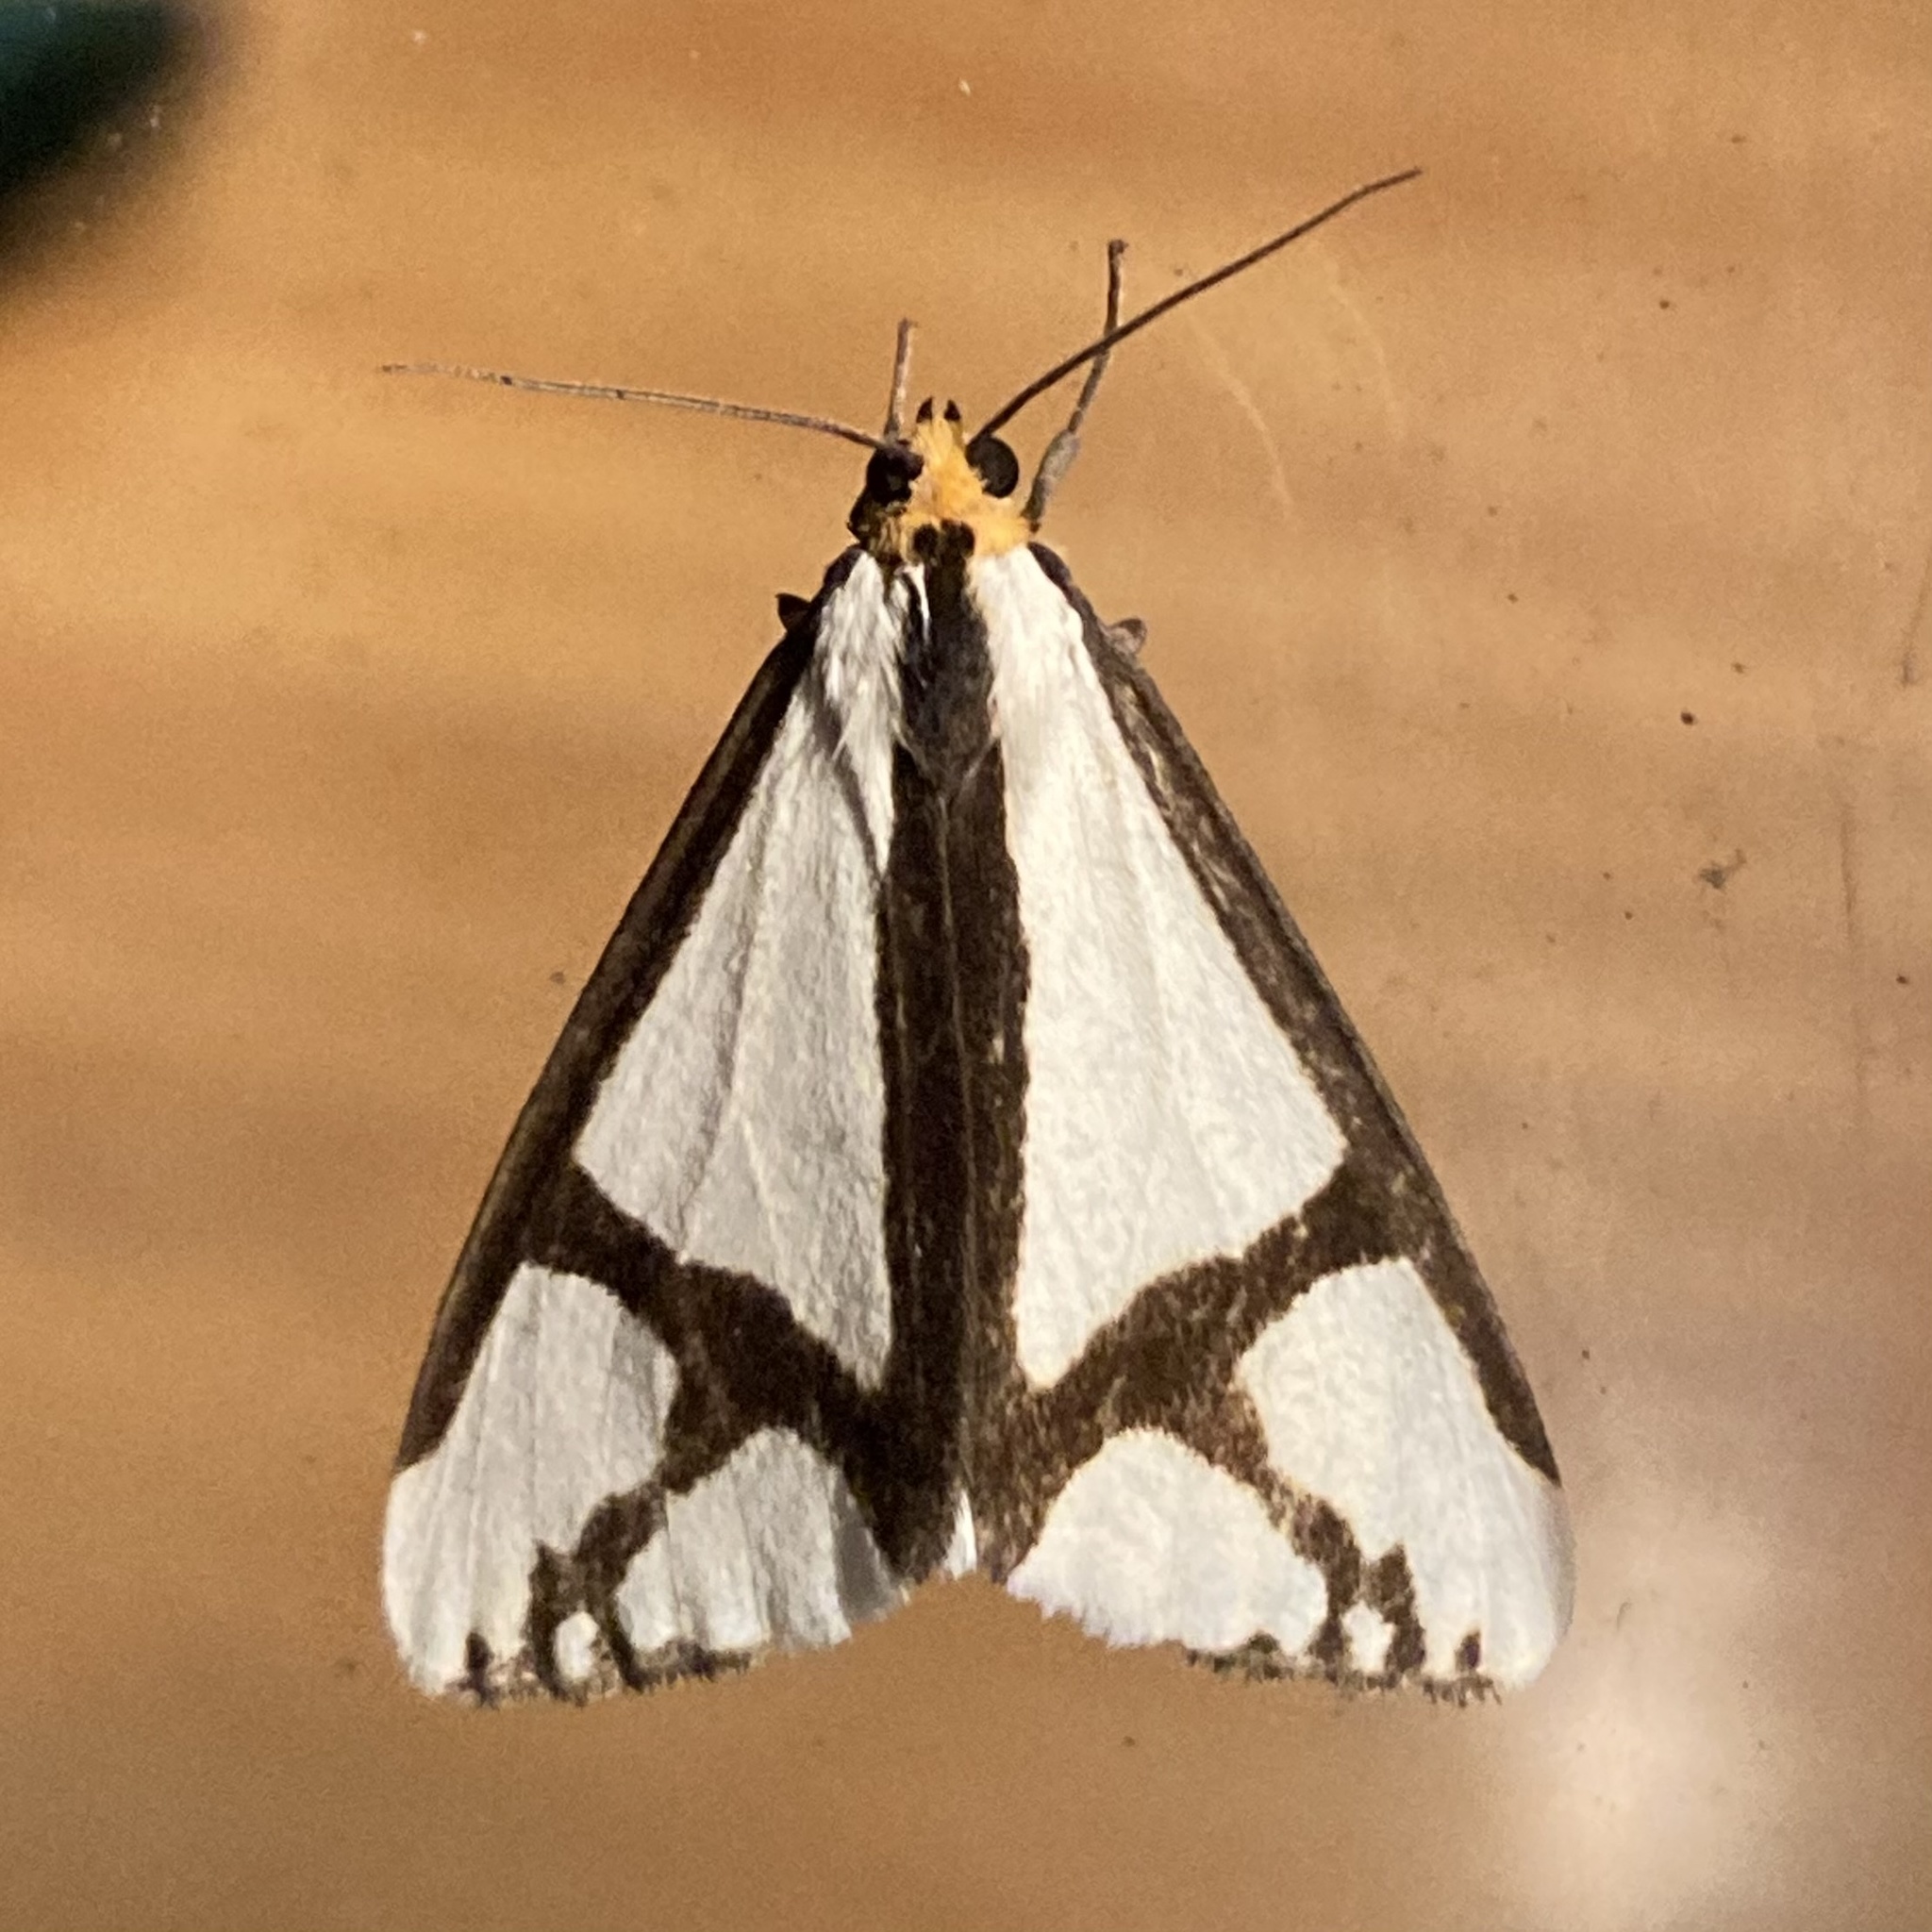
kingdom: Animalia
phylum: Arthropoda
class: Insecta
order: Lepidoptera
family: Erebidae
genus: Haploa
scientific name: Haploa contigua
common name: Neighbor moth
